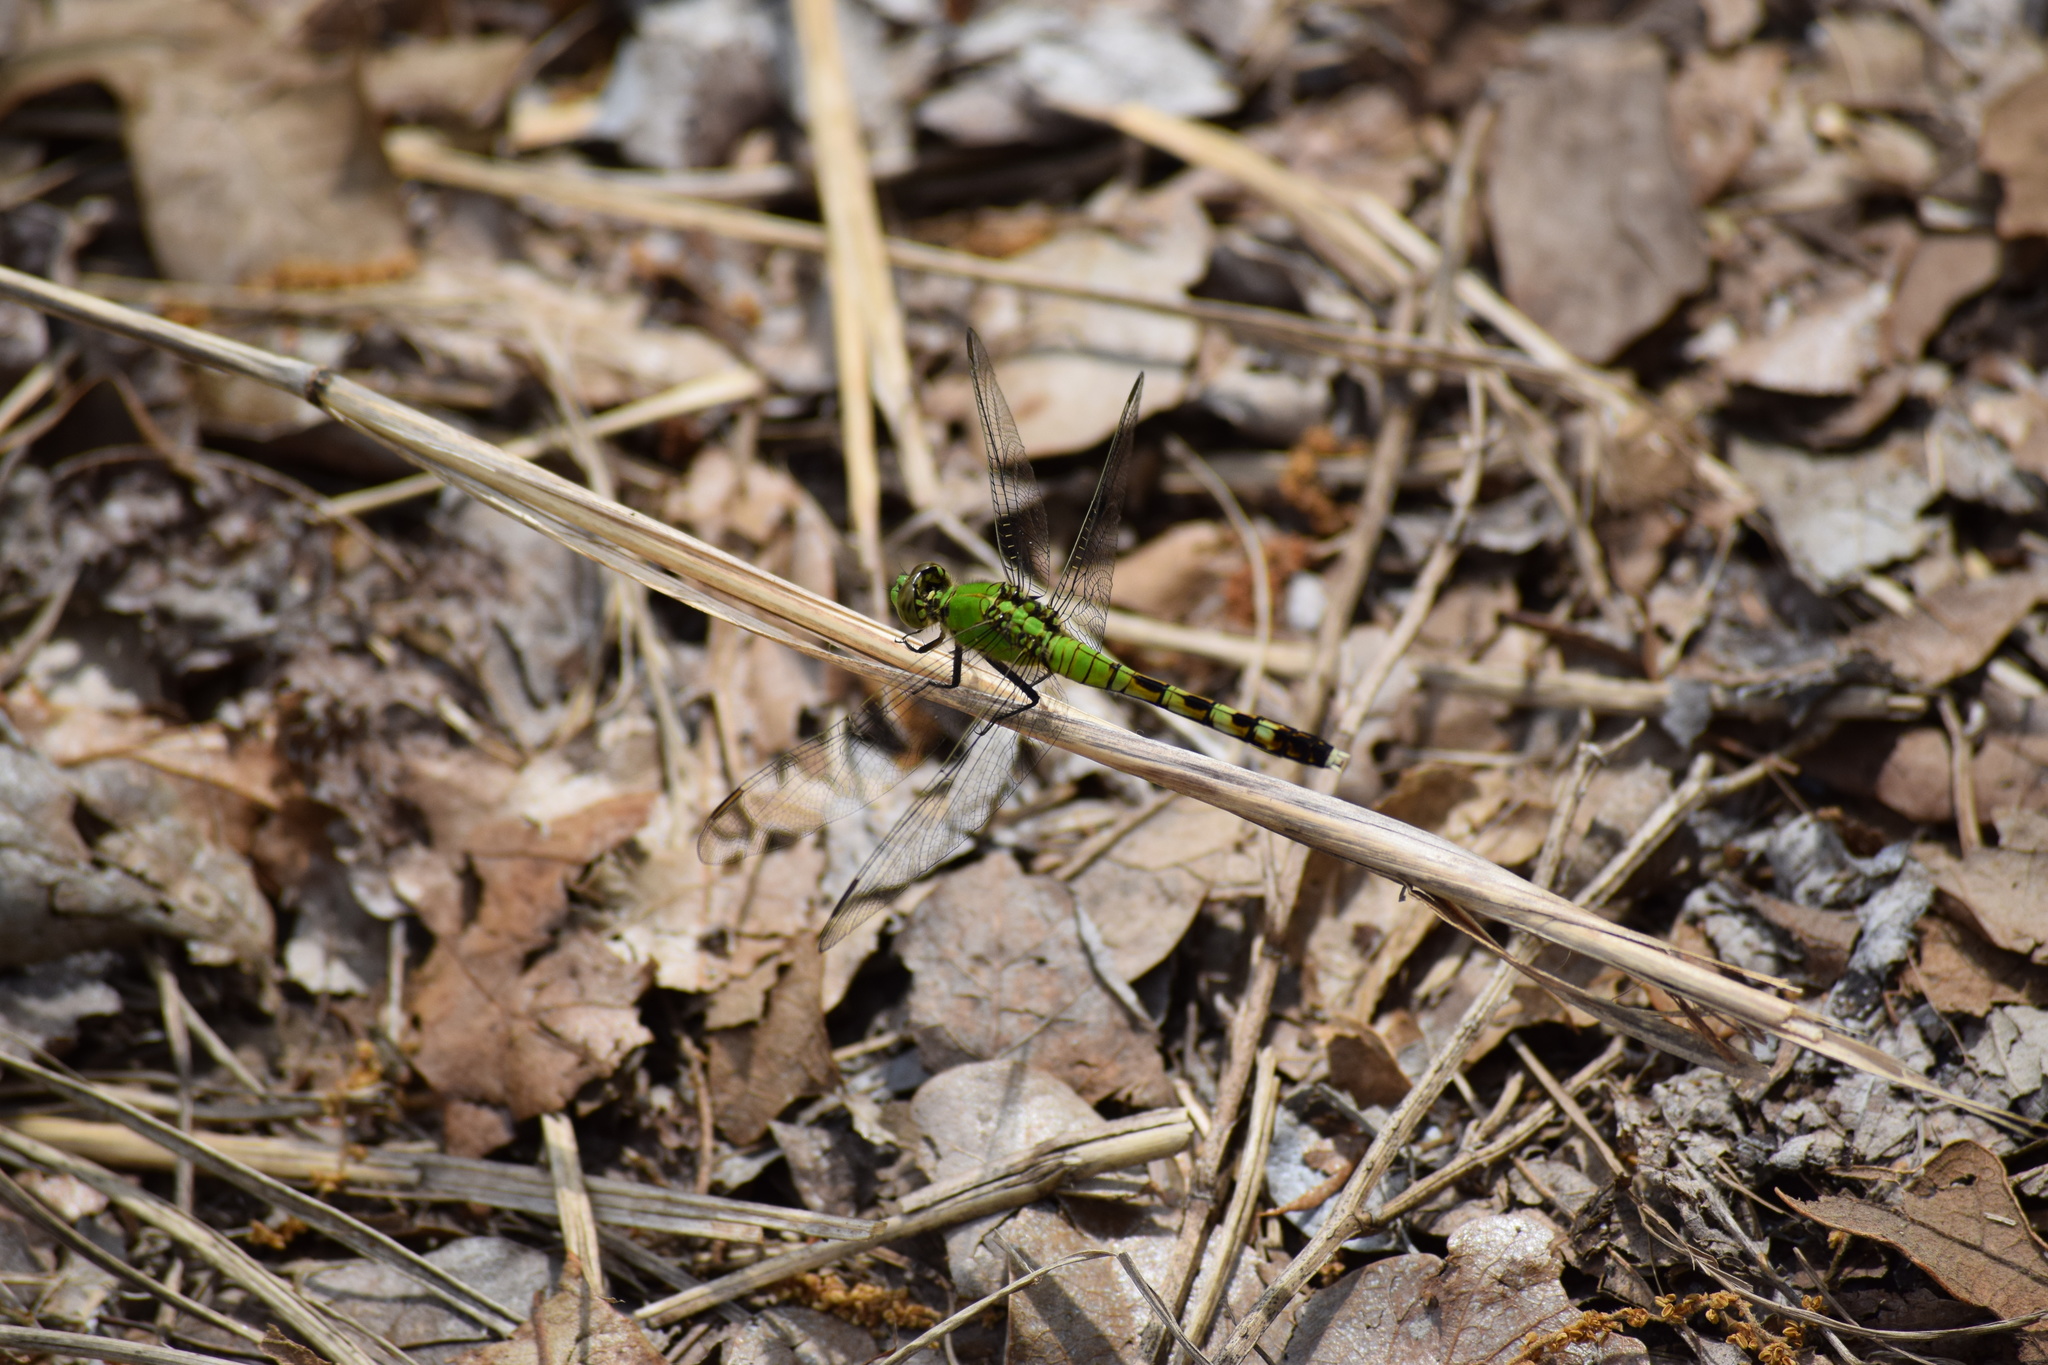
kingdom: Animalia
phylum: Arthropoda
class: Insecta
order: Odonata
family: Libellulidae
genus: Erythemis
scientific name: Erythemis simplicicollis
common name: Eastern pondhawk
